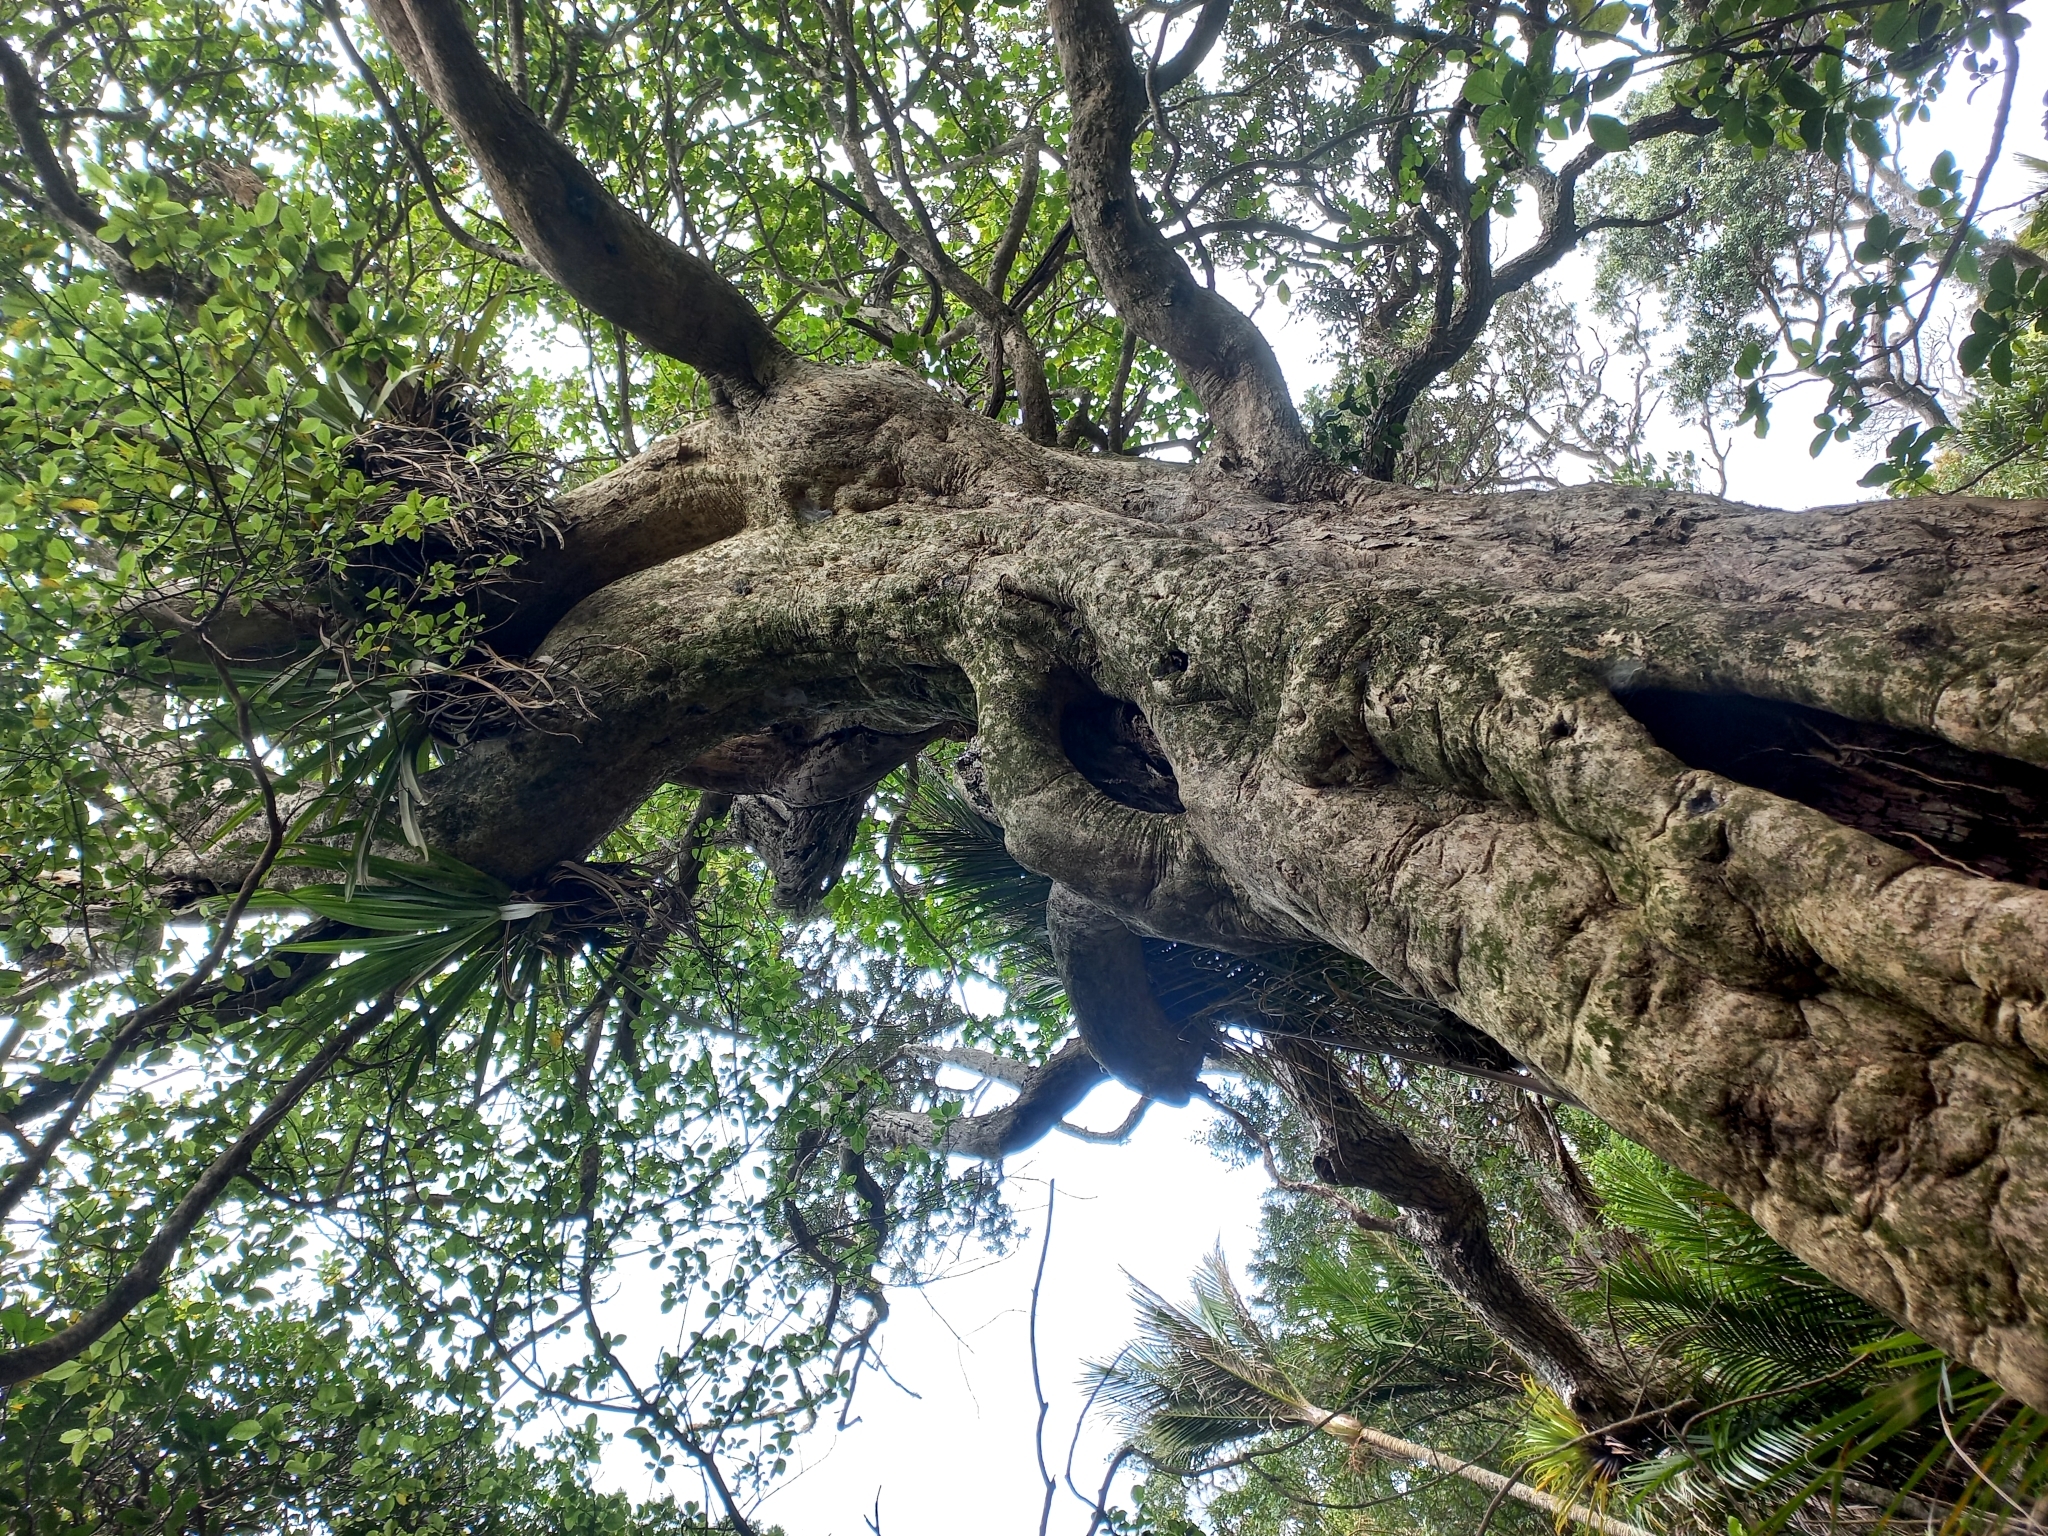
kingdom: Plantae
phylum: Tracheophyta
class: Magnoliopsida
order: Lamiales
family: Lamiaceae
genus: Vitex
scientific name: Vitex lucens
